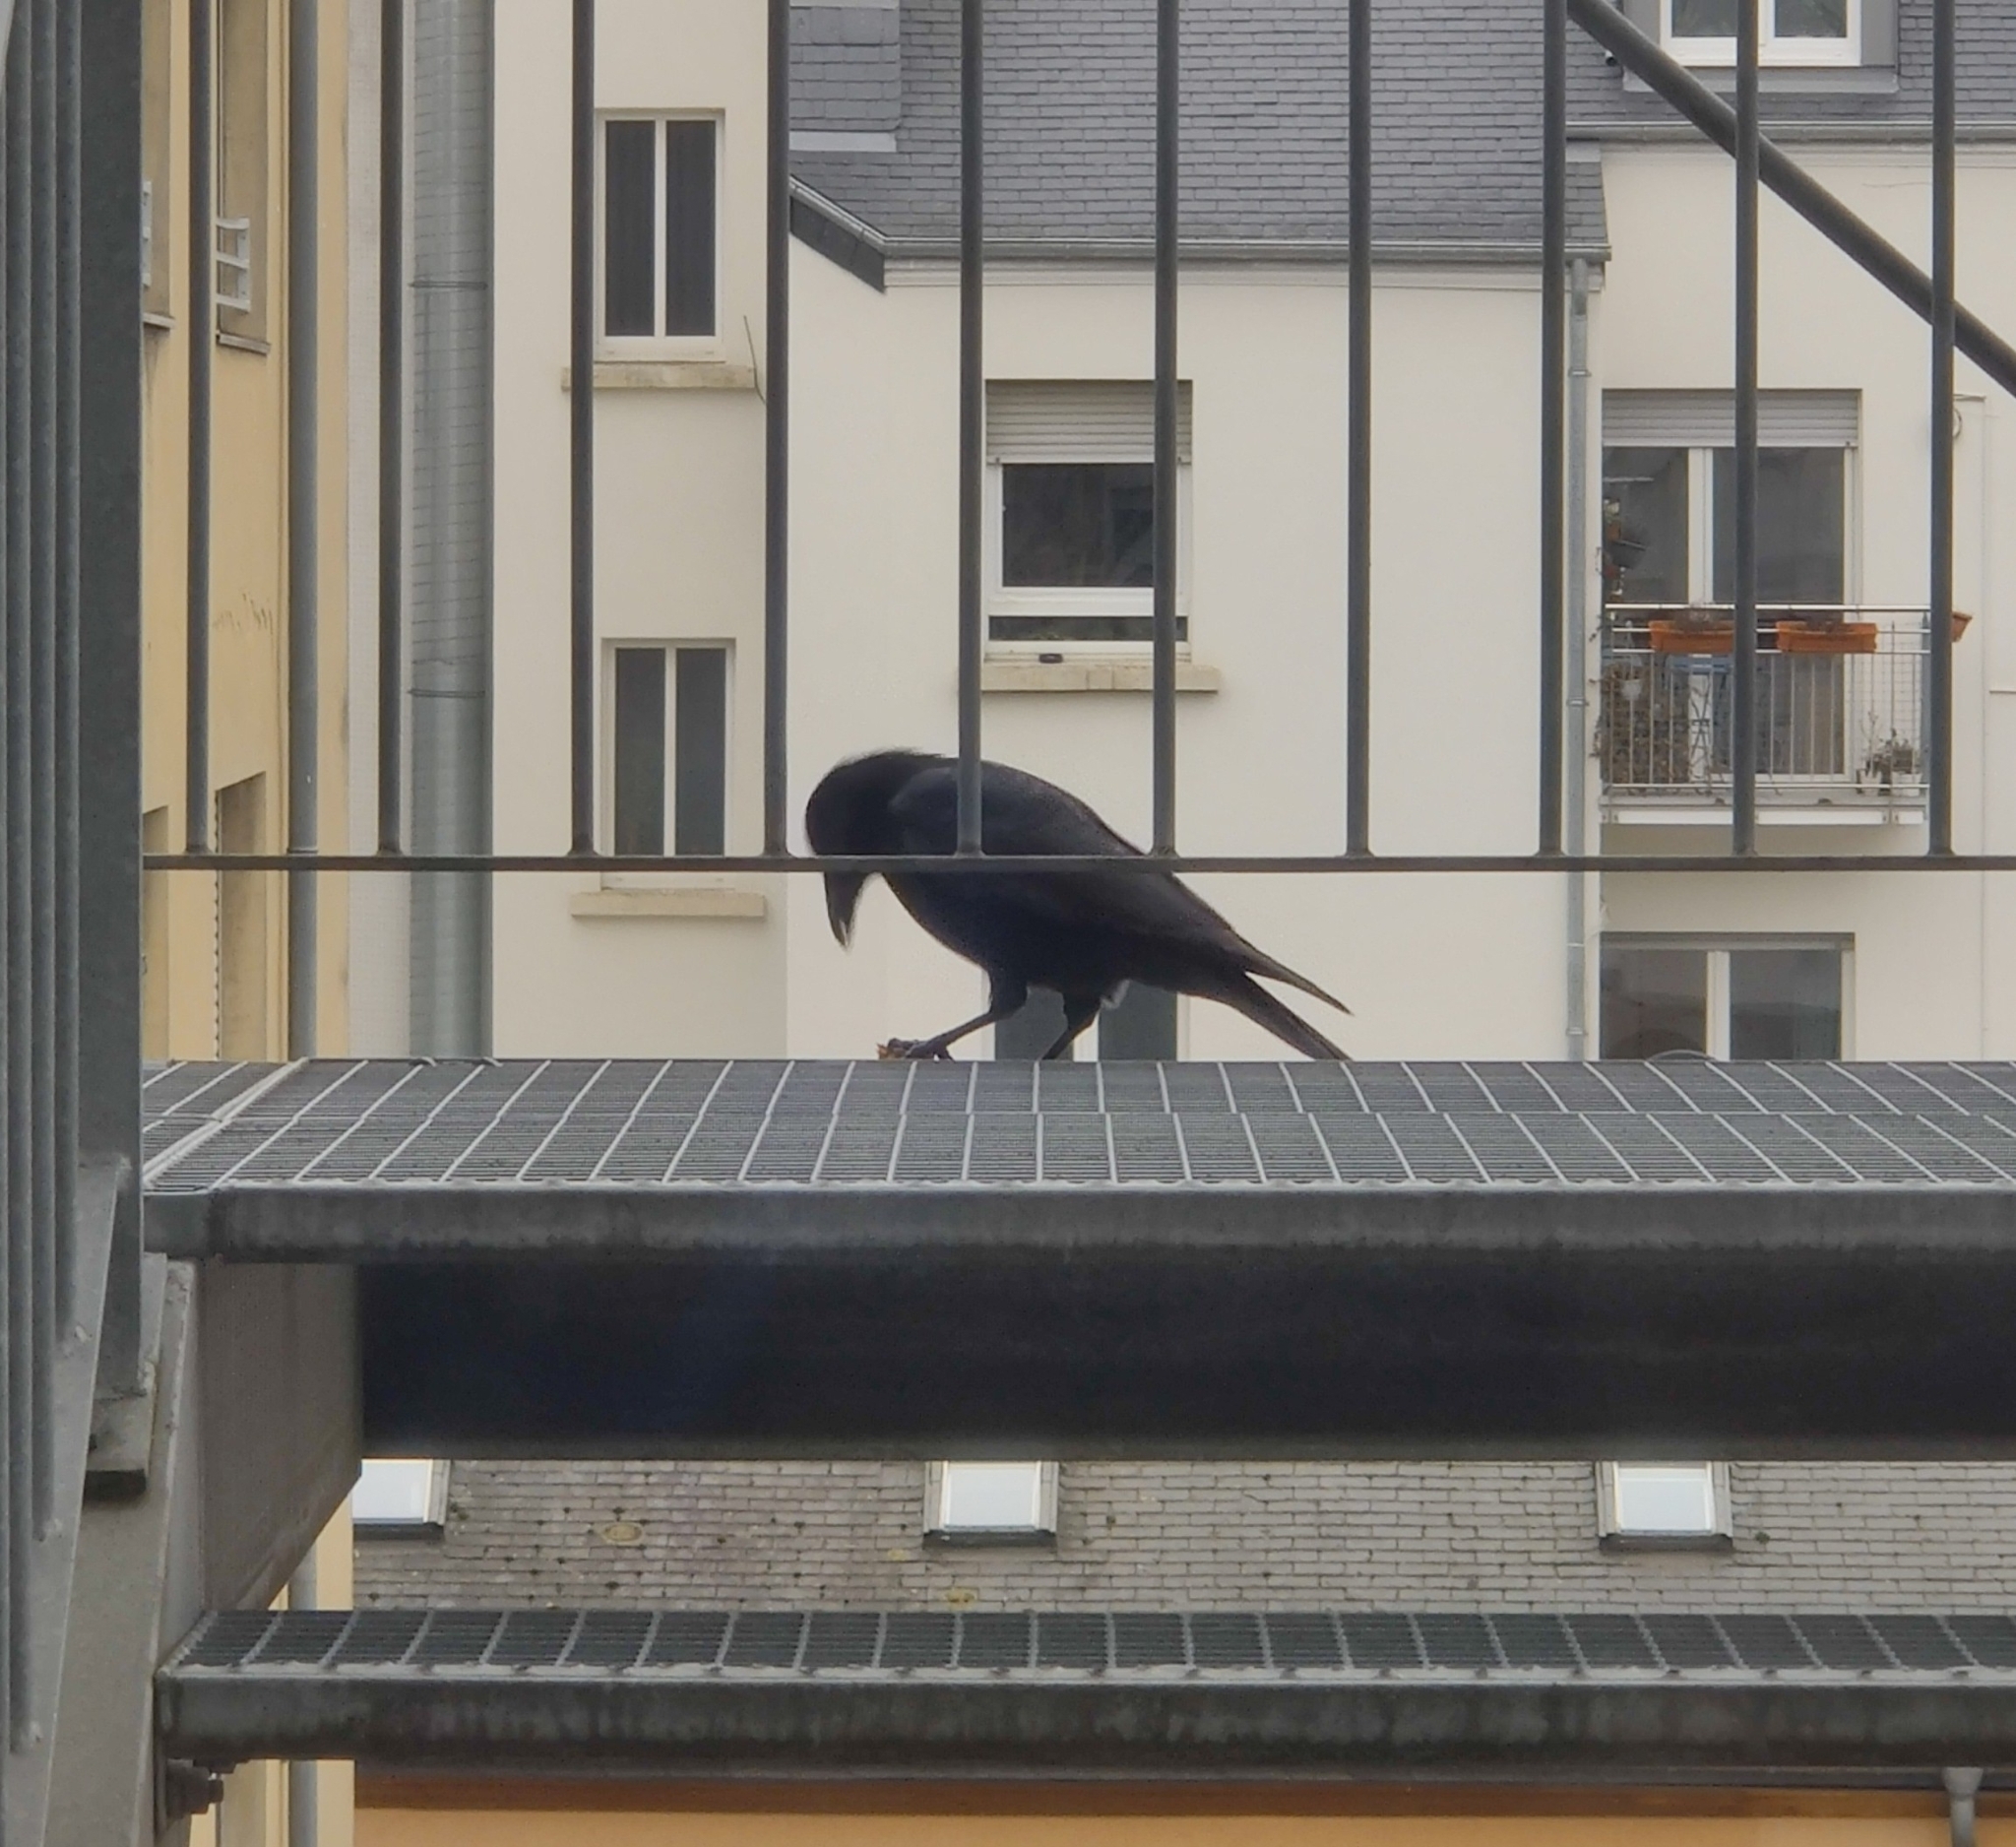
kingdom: Animalia
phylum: Chordata
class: Aves
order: Passeriformes
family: Corvidae
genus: Corvus
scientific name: Corvus corone
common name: Carrion crow
